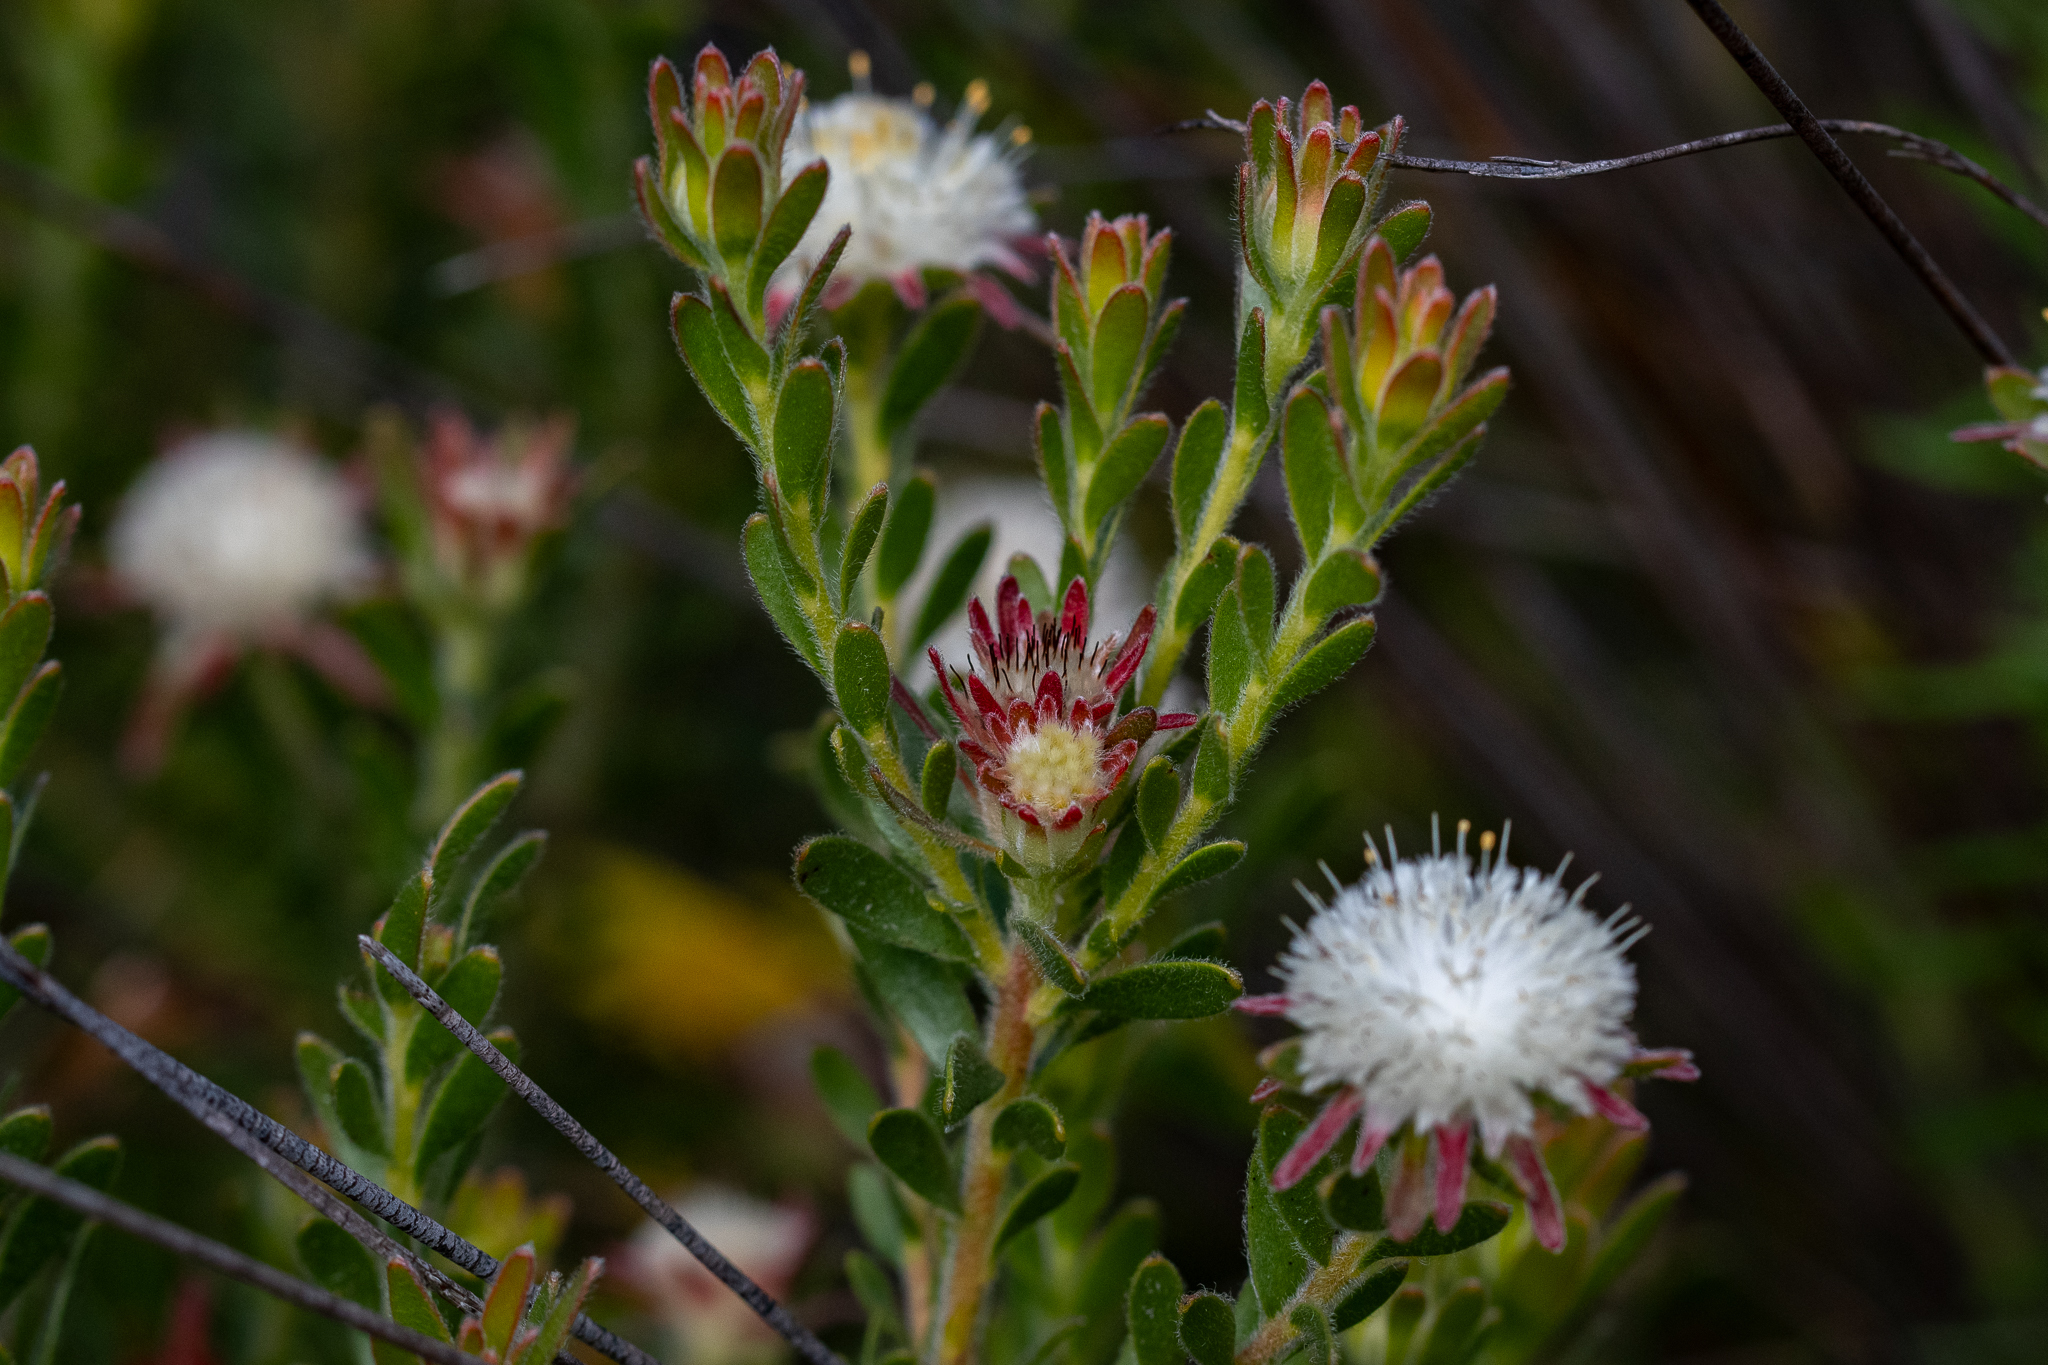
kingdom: Plantae
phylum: Tracheophyta
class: Magnoliopsida
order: Proteales
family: Proteaceae
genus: Diastella
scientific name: Diastella fraterna
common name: Palmiet silkypuff
